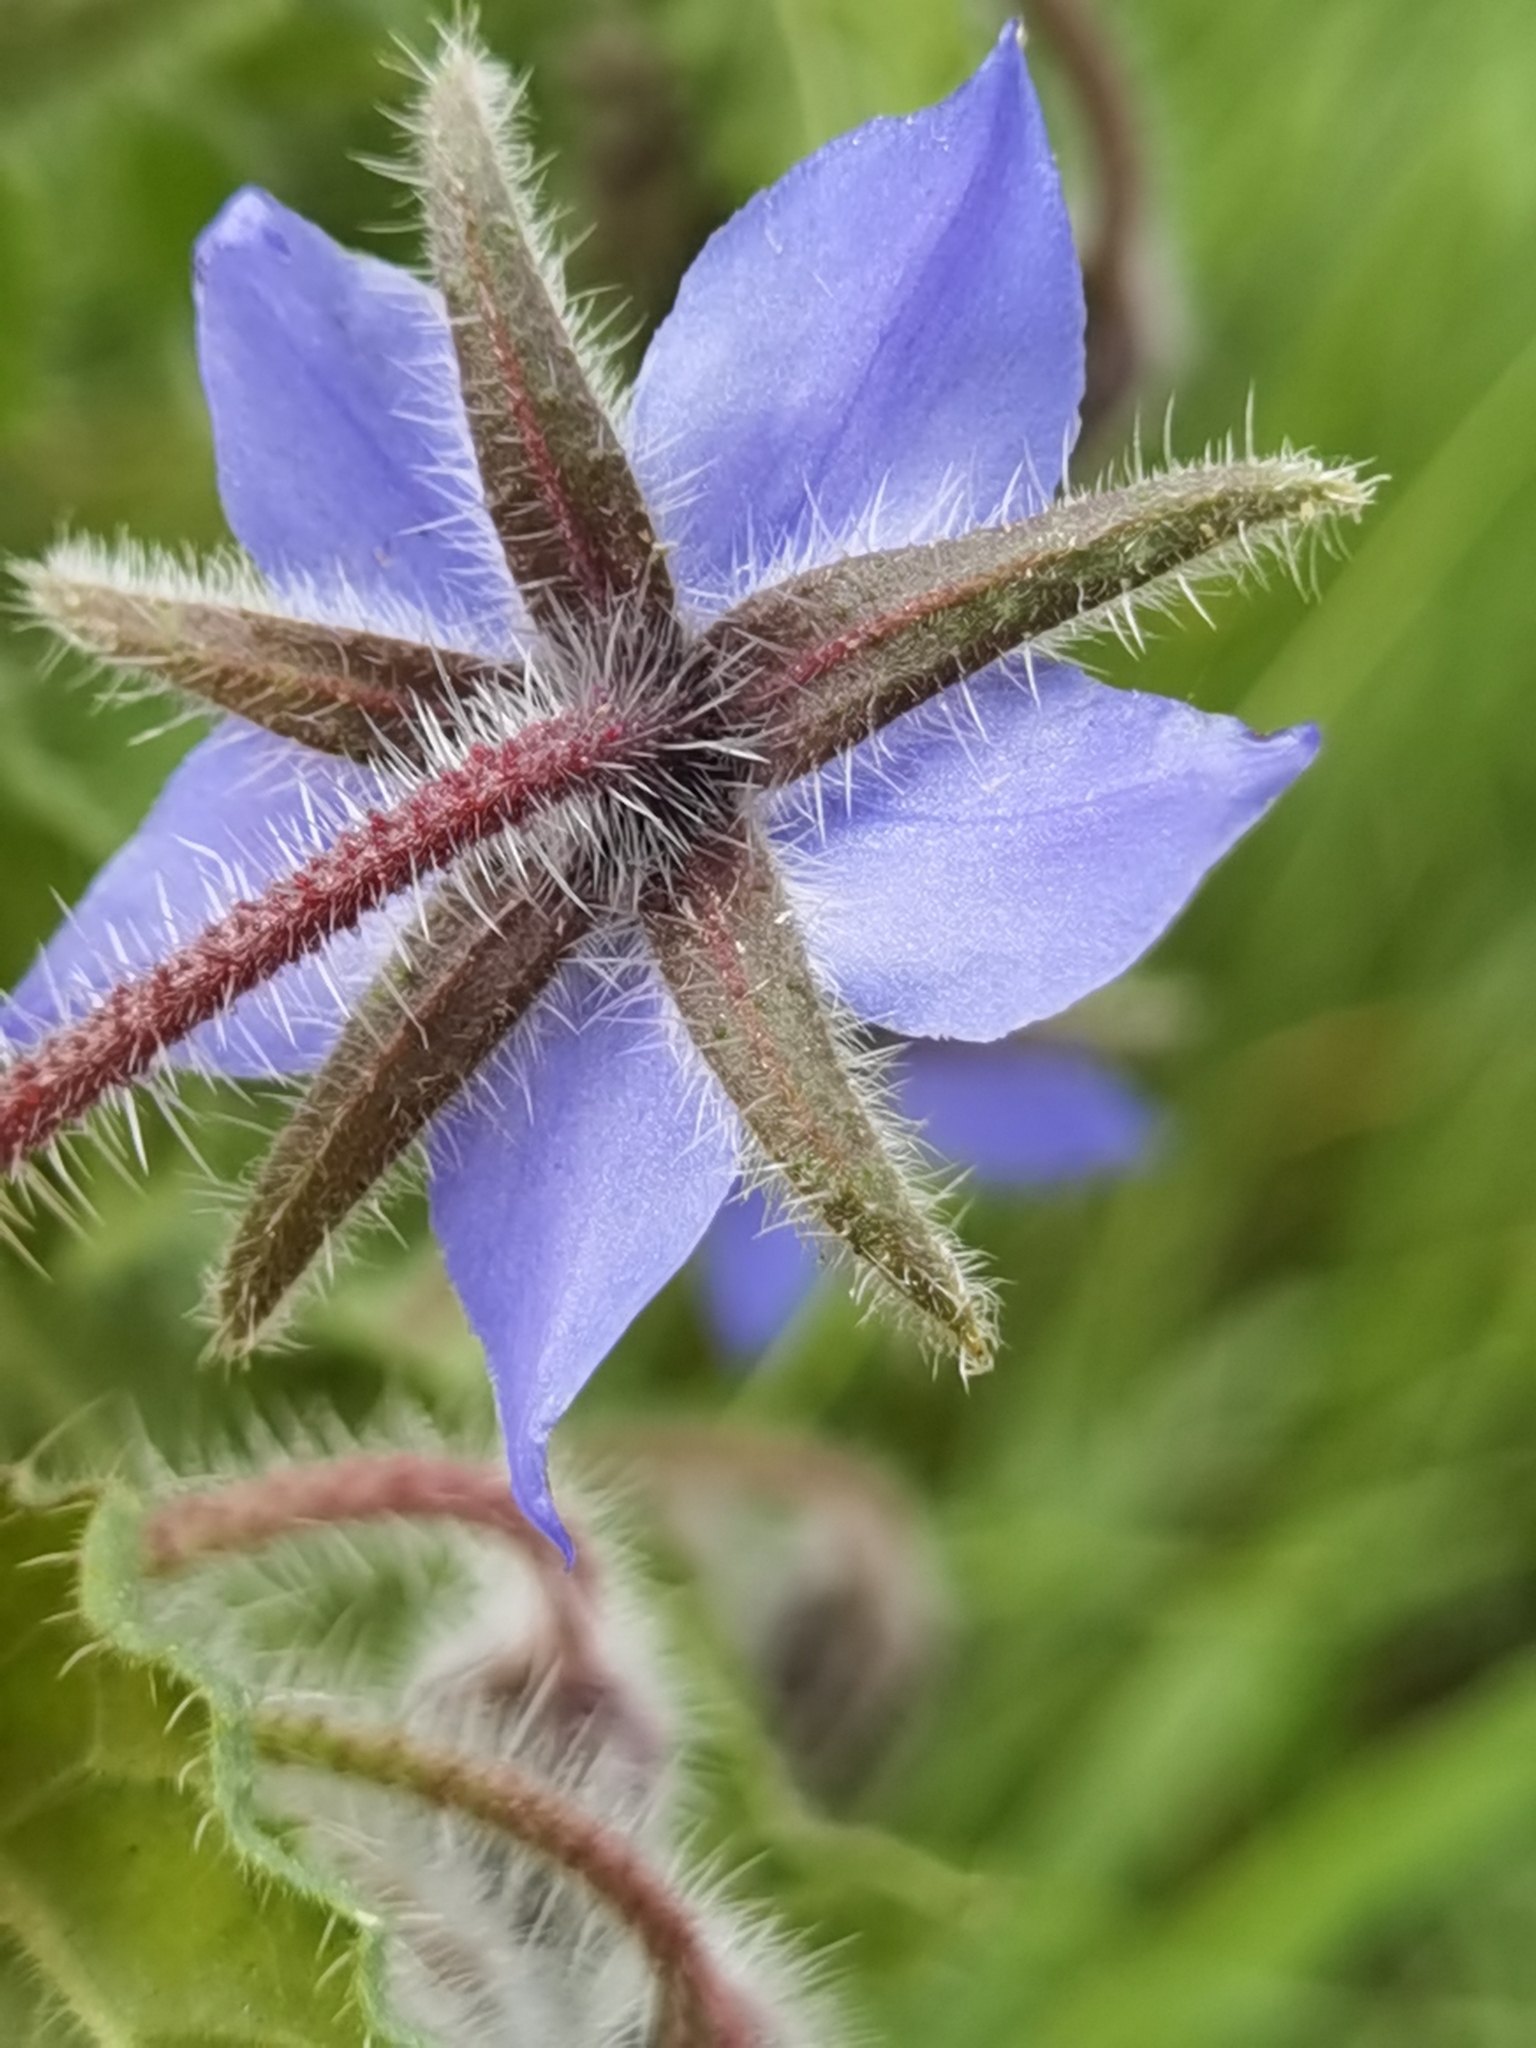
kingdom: Plantae
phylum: Tracheophyta
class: Magnoliopsida
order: Boraginales
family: Boraginaceae
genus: Borago
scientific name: Borago officinalis
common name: Borage
